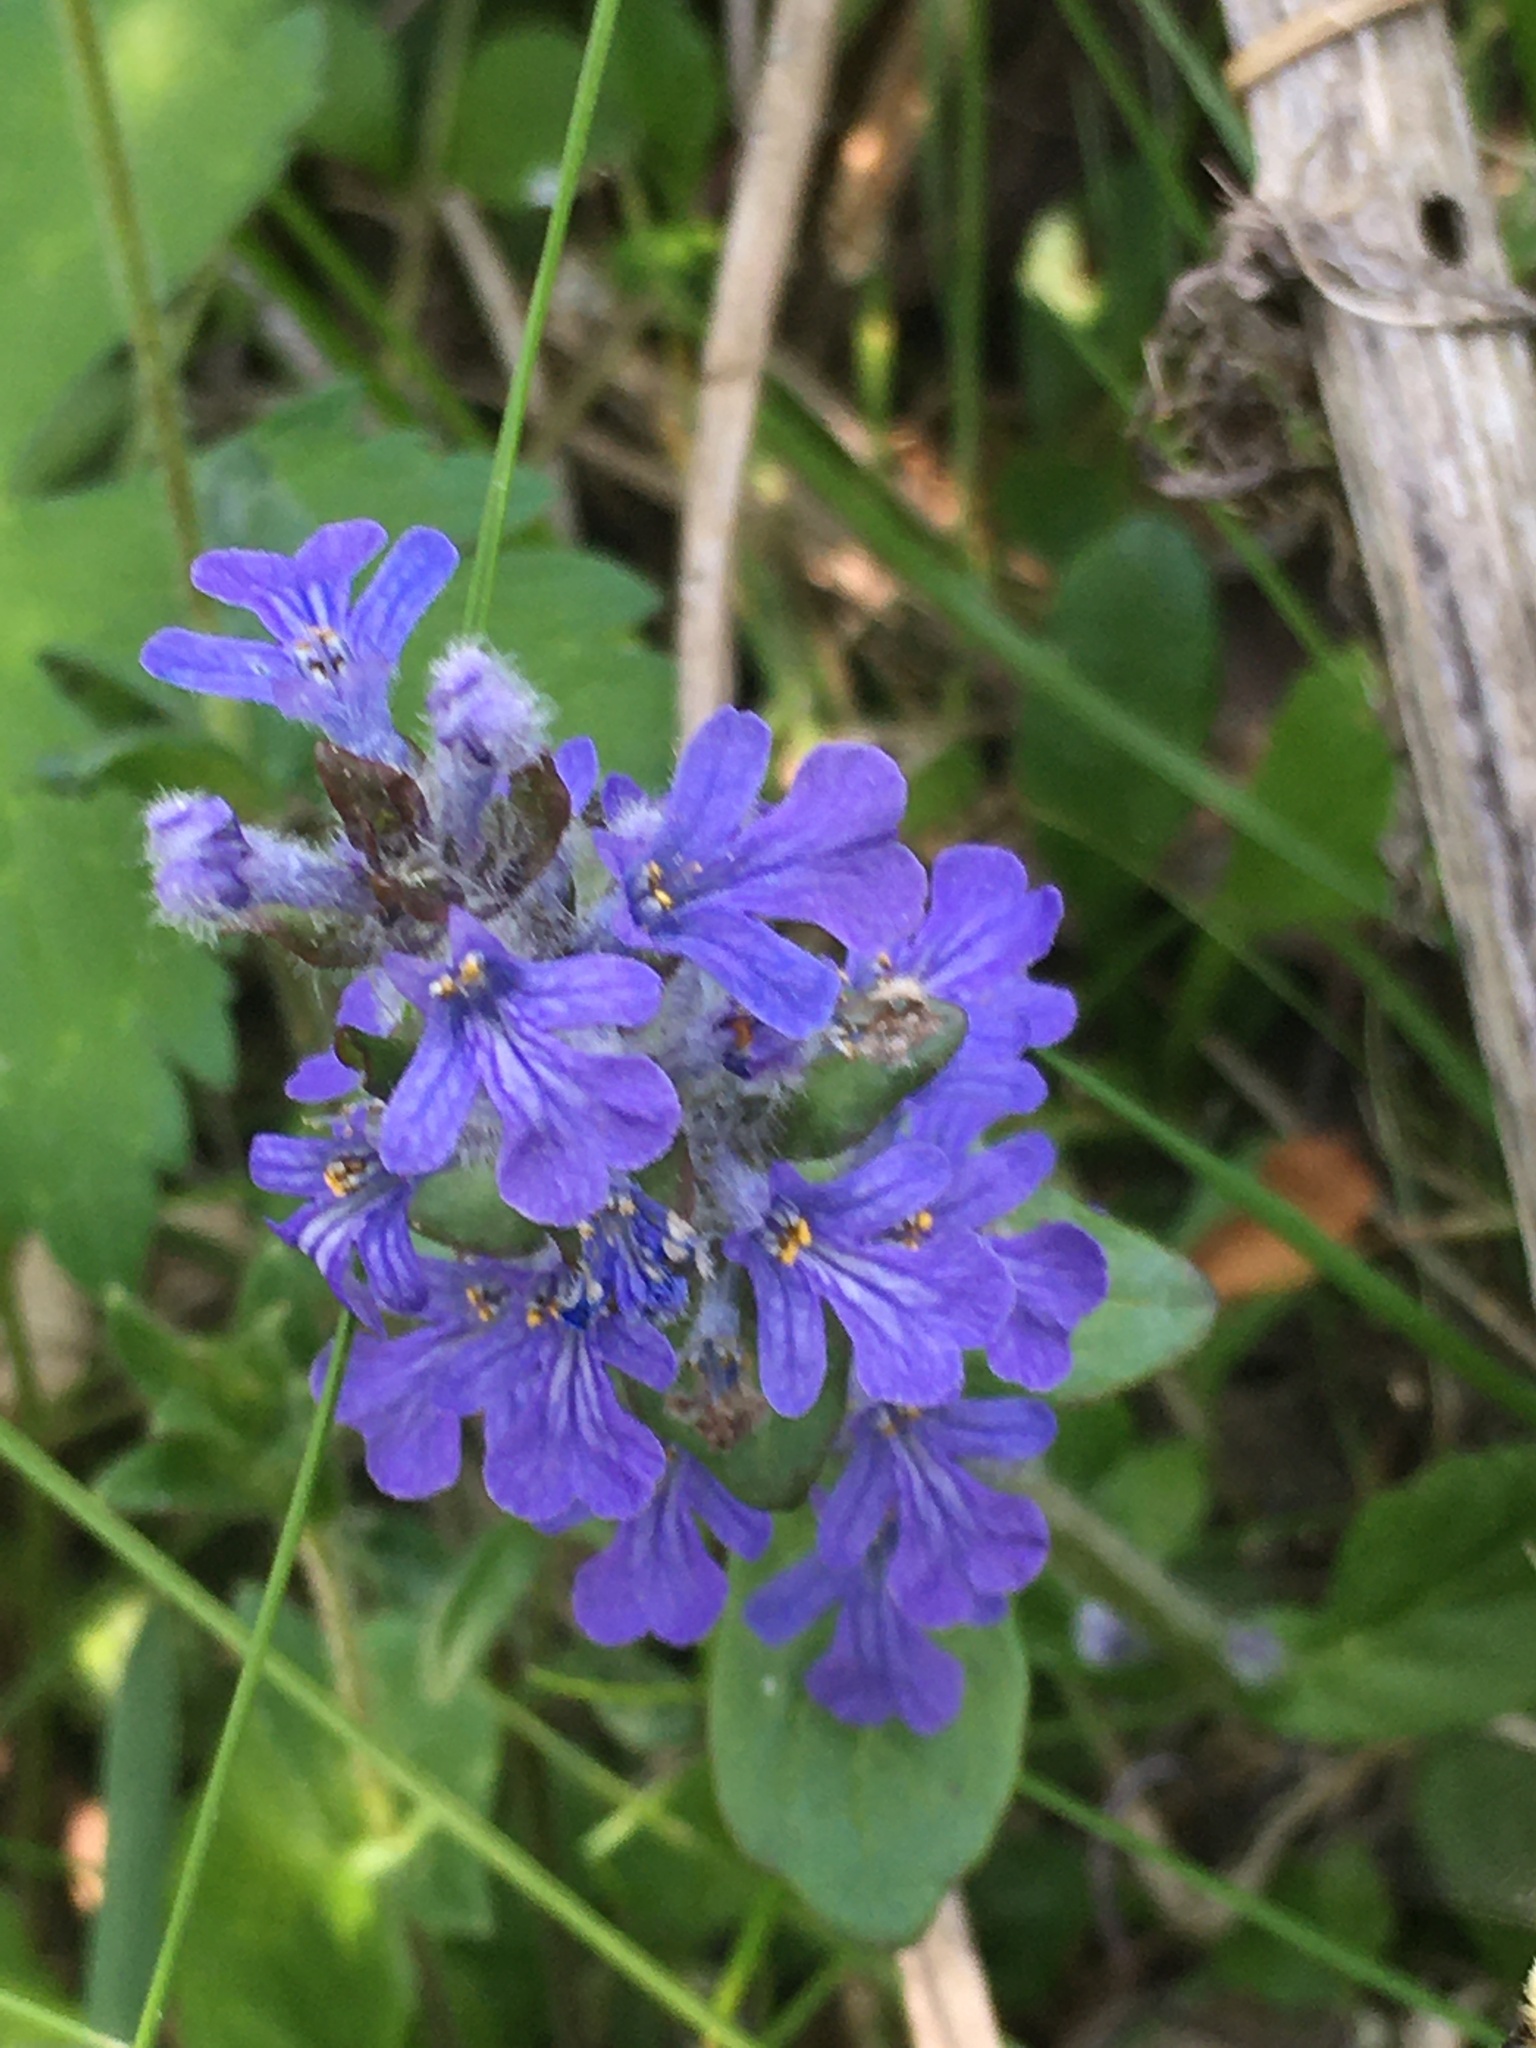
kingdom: Plantae
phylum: Tracheophyta
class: Magnoliopsida
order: Lamiales
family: Lamiaceae
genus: Ajuga
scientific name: Ajuga reptans
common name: Bugle
